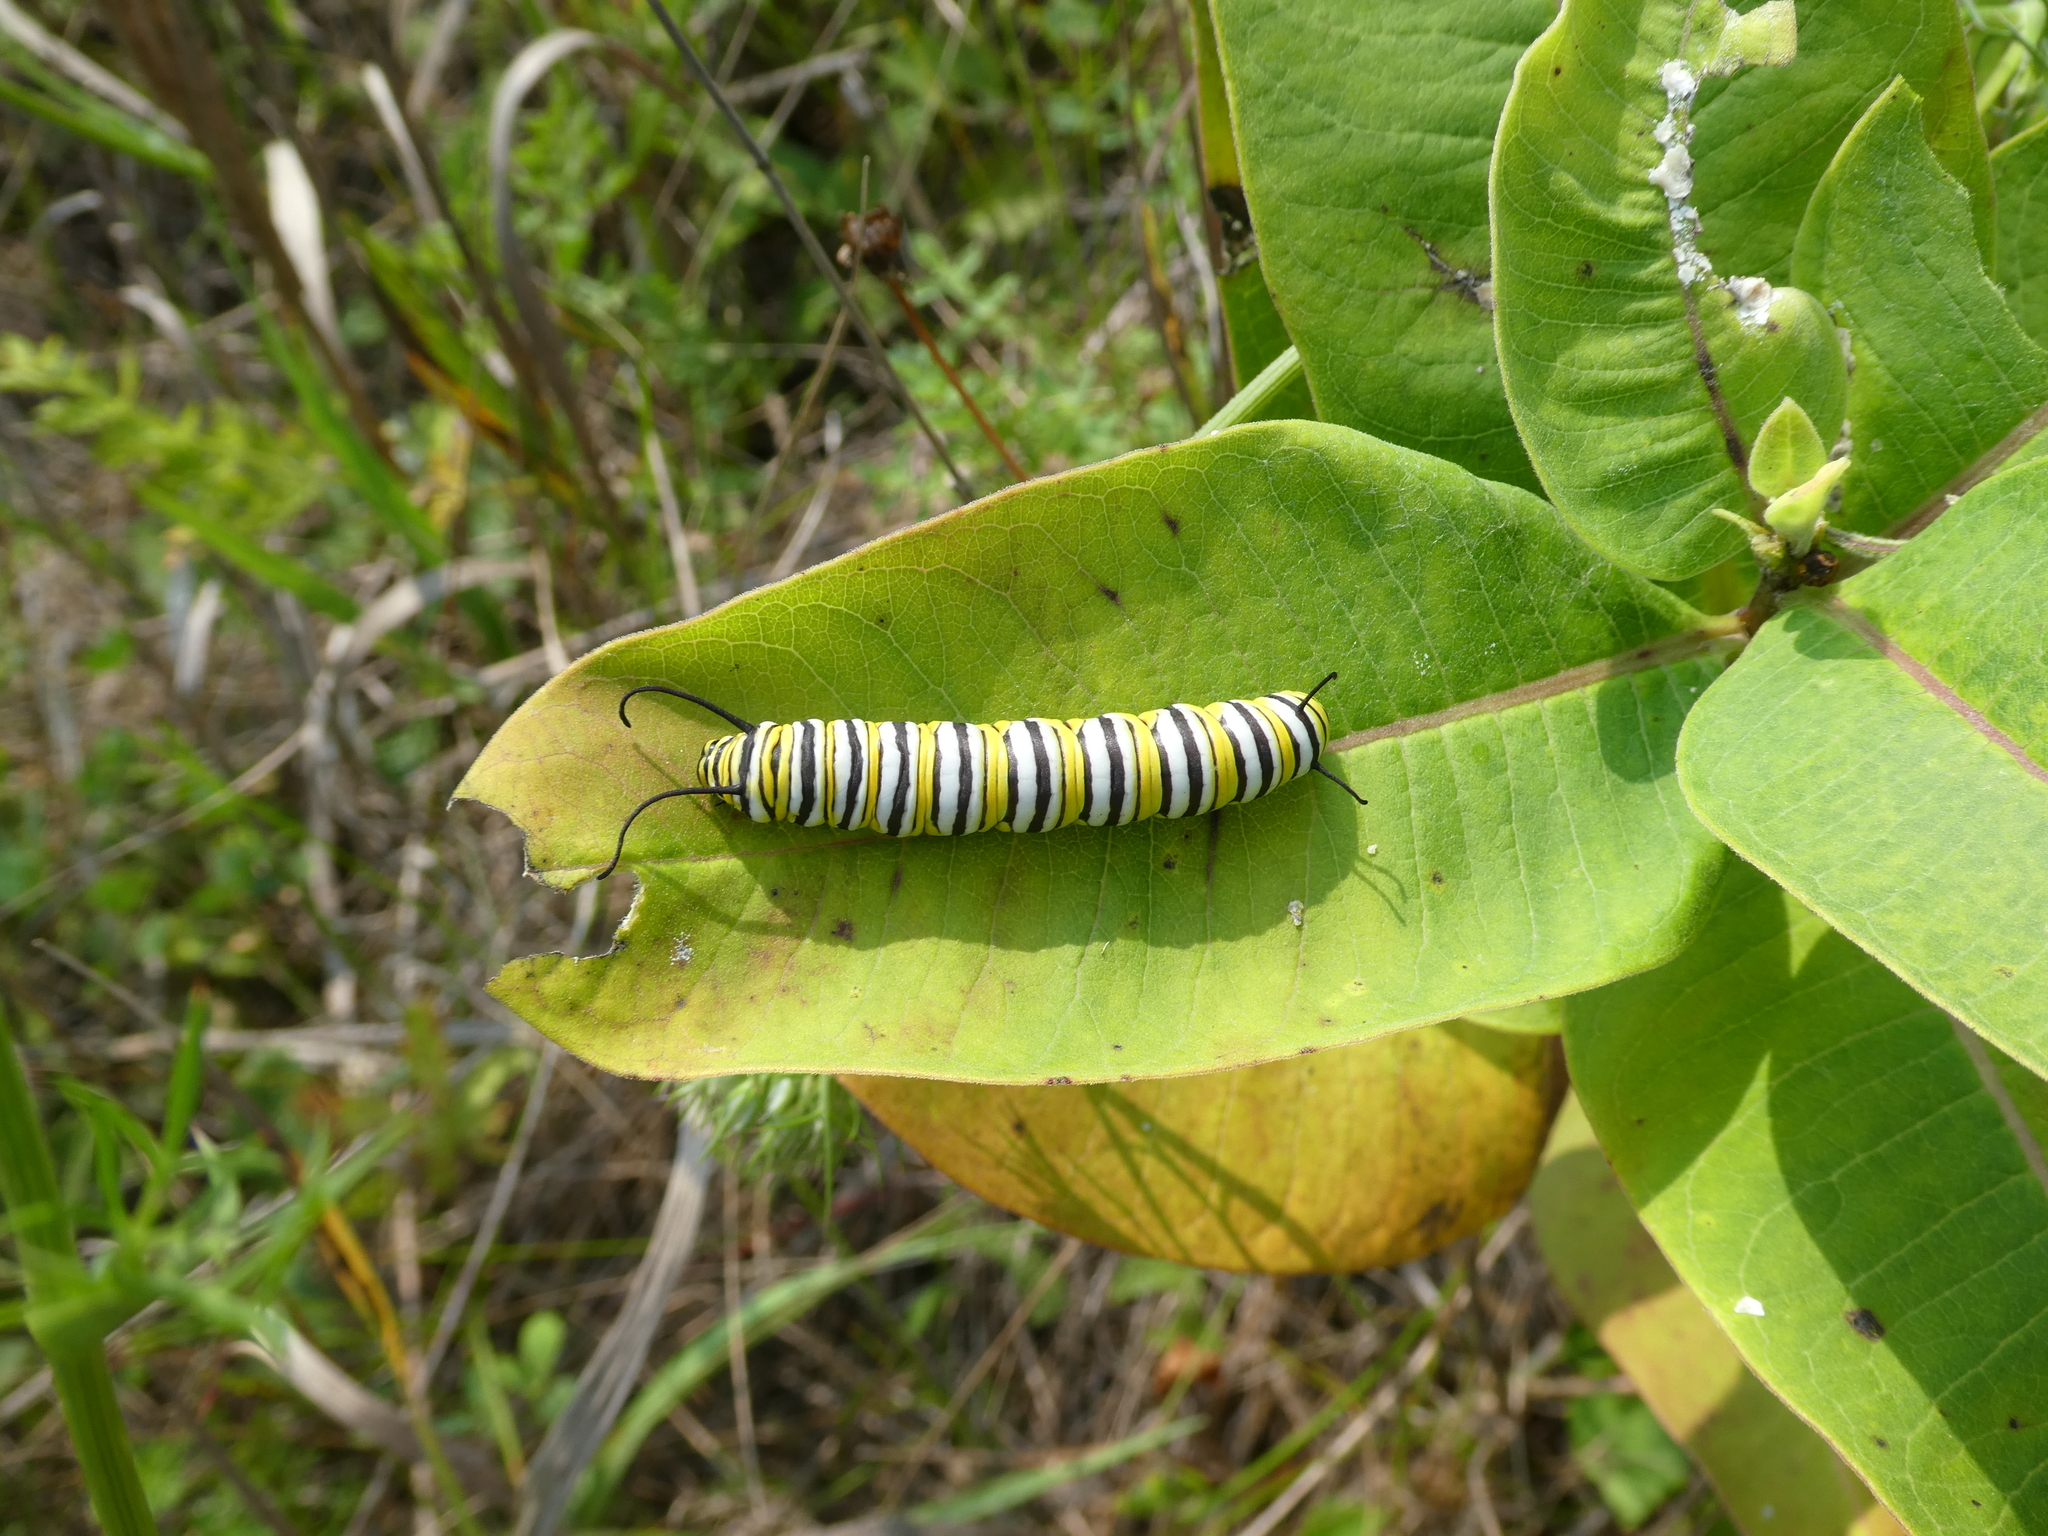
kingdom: Animalia
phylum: Arthropoda
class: Insecta
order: Lepidoptera
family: Nymphalidae
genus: Danaus
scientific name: Danaus plexippus
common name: Monarch
